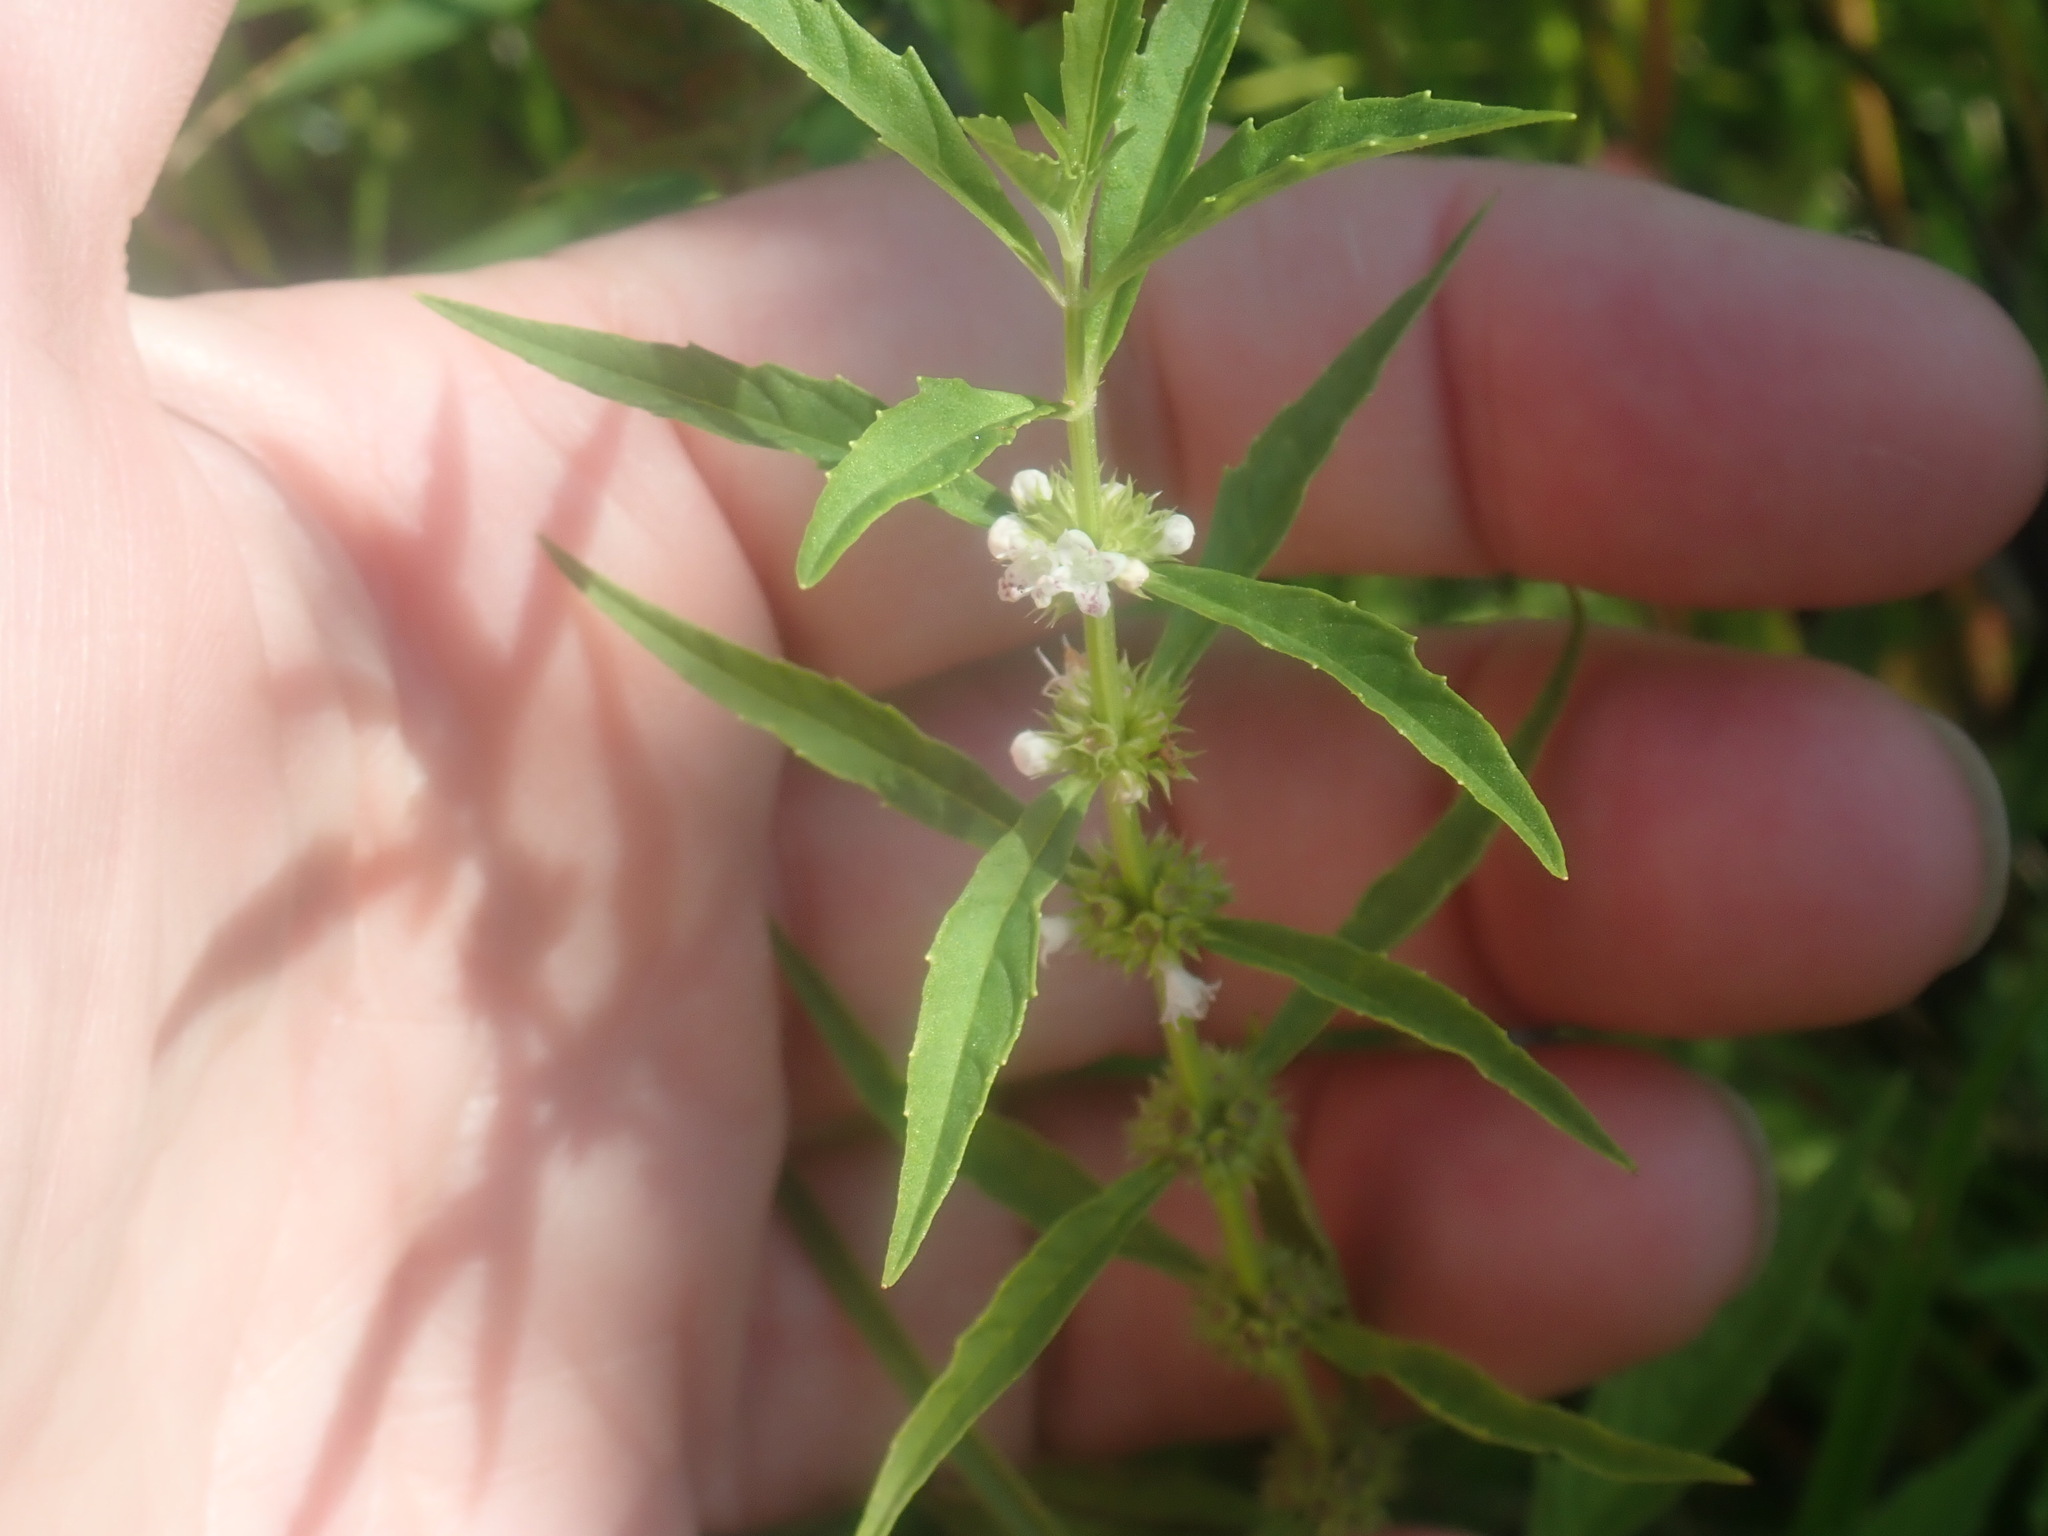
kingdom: Plantae
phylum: Tracheophyta
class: Magnoliopsida
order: Lamiales
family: Lamiaceae
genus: Lycopus
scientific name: Lycopus
